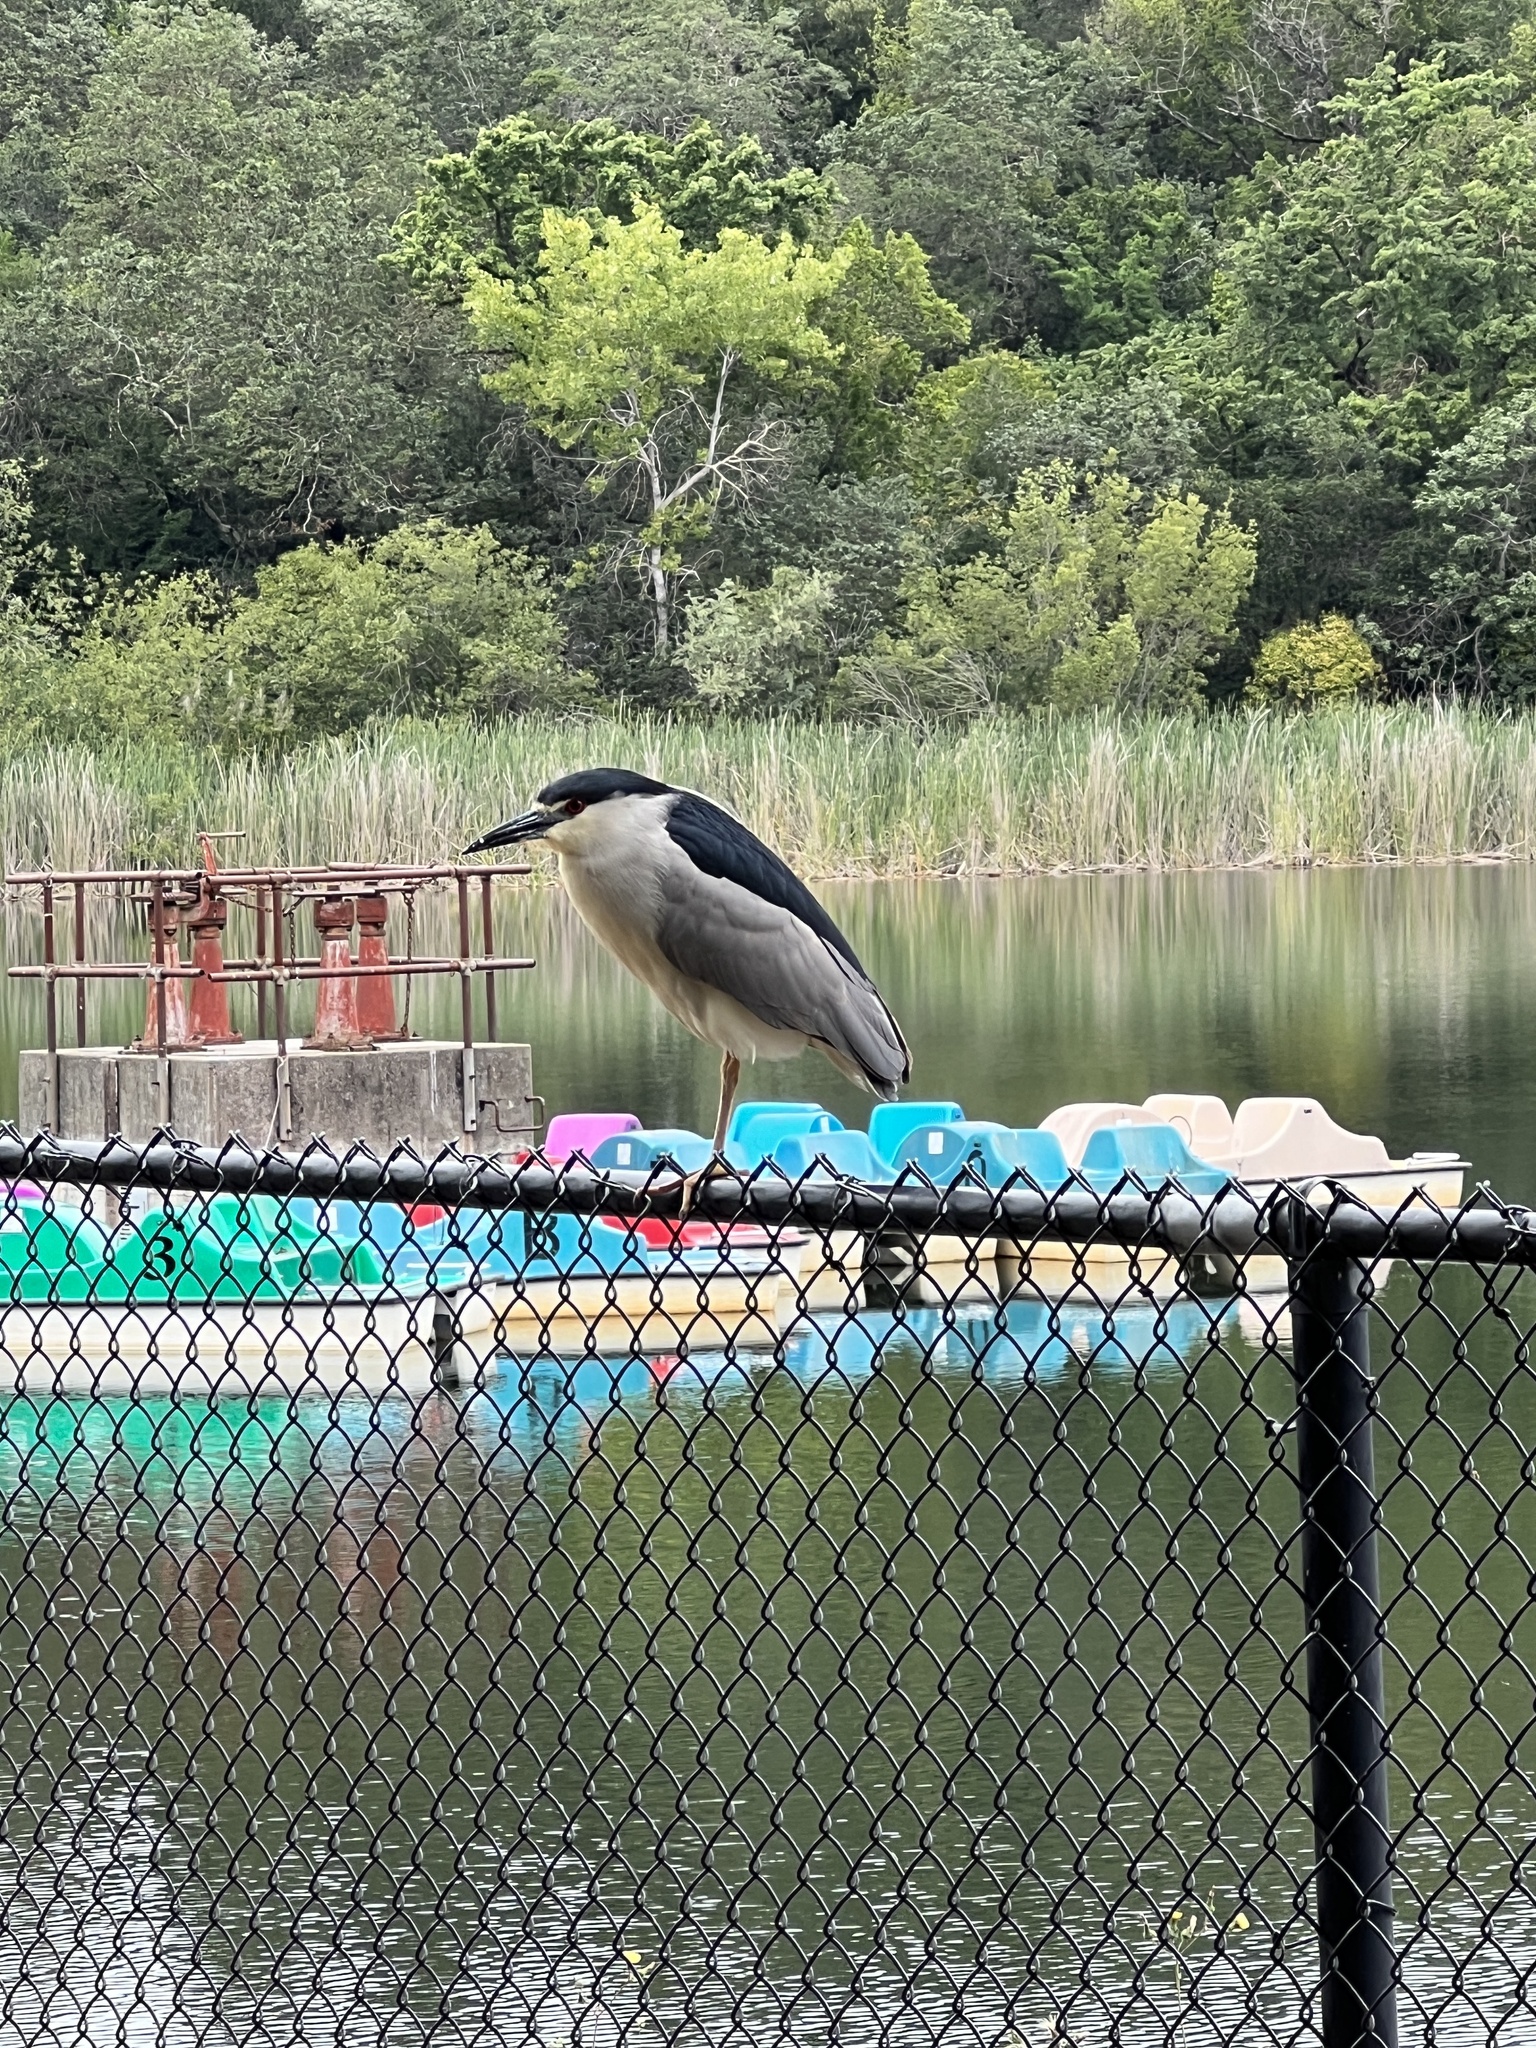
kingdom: Animalia
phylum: Chordata
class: Aves
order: Pelecaniformes
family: Ardeidae
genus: Nycticorax
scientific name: Nycticorax nycticorax
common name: Black-crowned night heron
